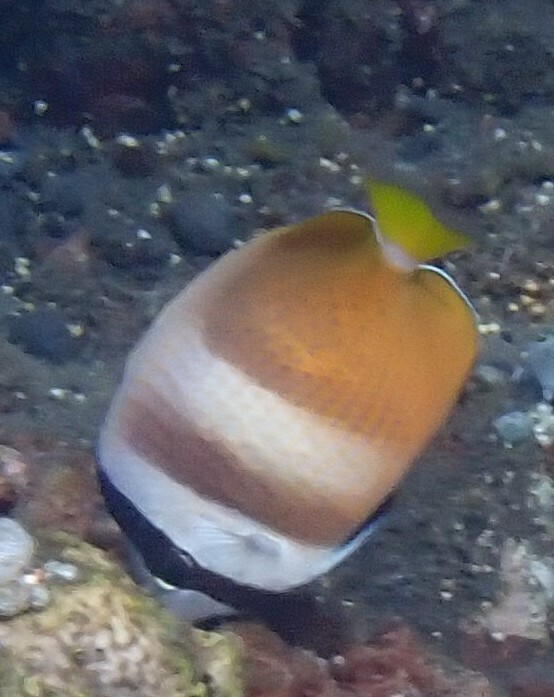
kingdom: Animalia
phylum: Chordata
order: Perciformes
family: Chaetodontidae
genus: Chaetodon
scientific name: Chaetodon kleinii
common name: Klein's butterflyfish
